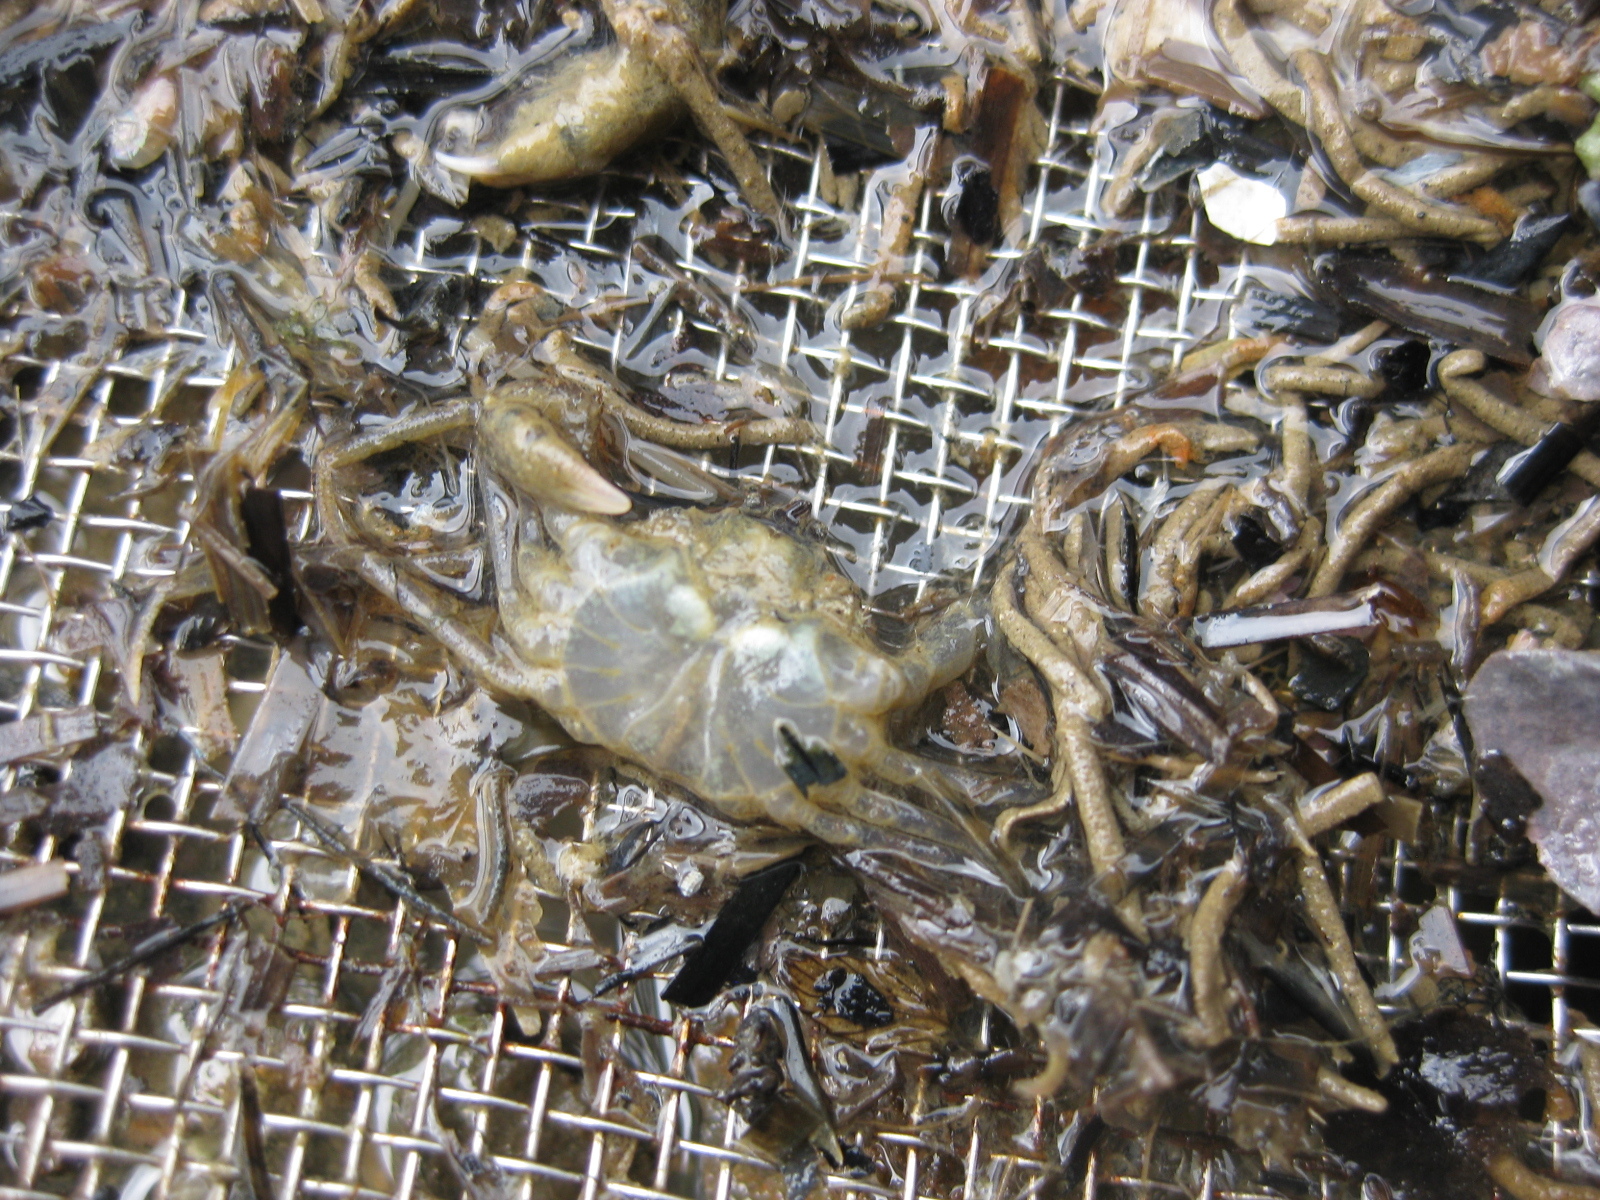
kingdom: Animalia
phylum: Arthropoda
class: Malacostraca
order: Decapoda
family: Hymenosomatidae
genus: Halicarcinus
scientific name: Halicarcinus whitei
